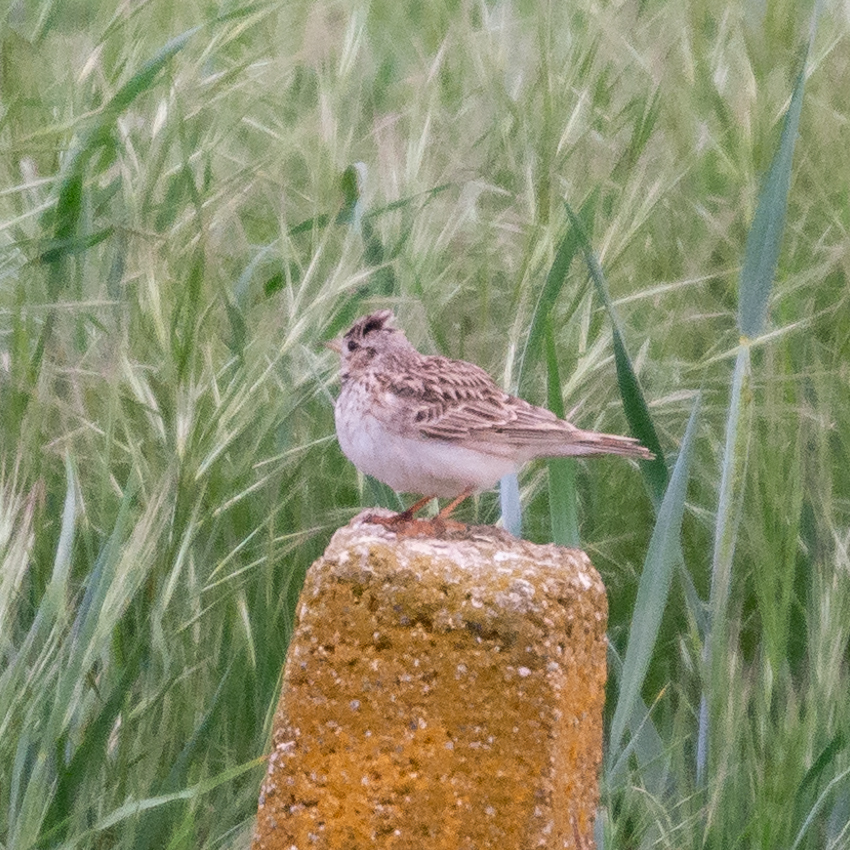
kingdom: Animalia
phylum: Chordata
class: Aves
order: Passeriformes
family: Alaudidae
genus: Alauda
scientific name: Alauda arvensis
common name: Eurasian skylark
